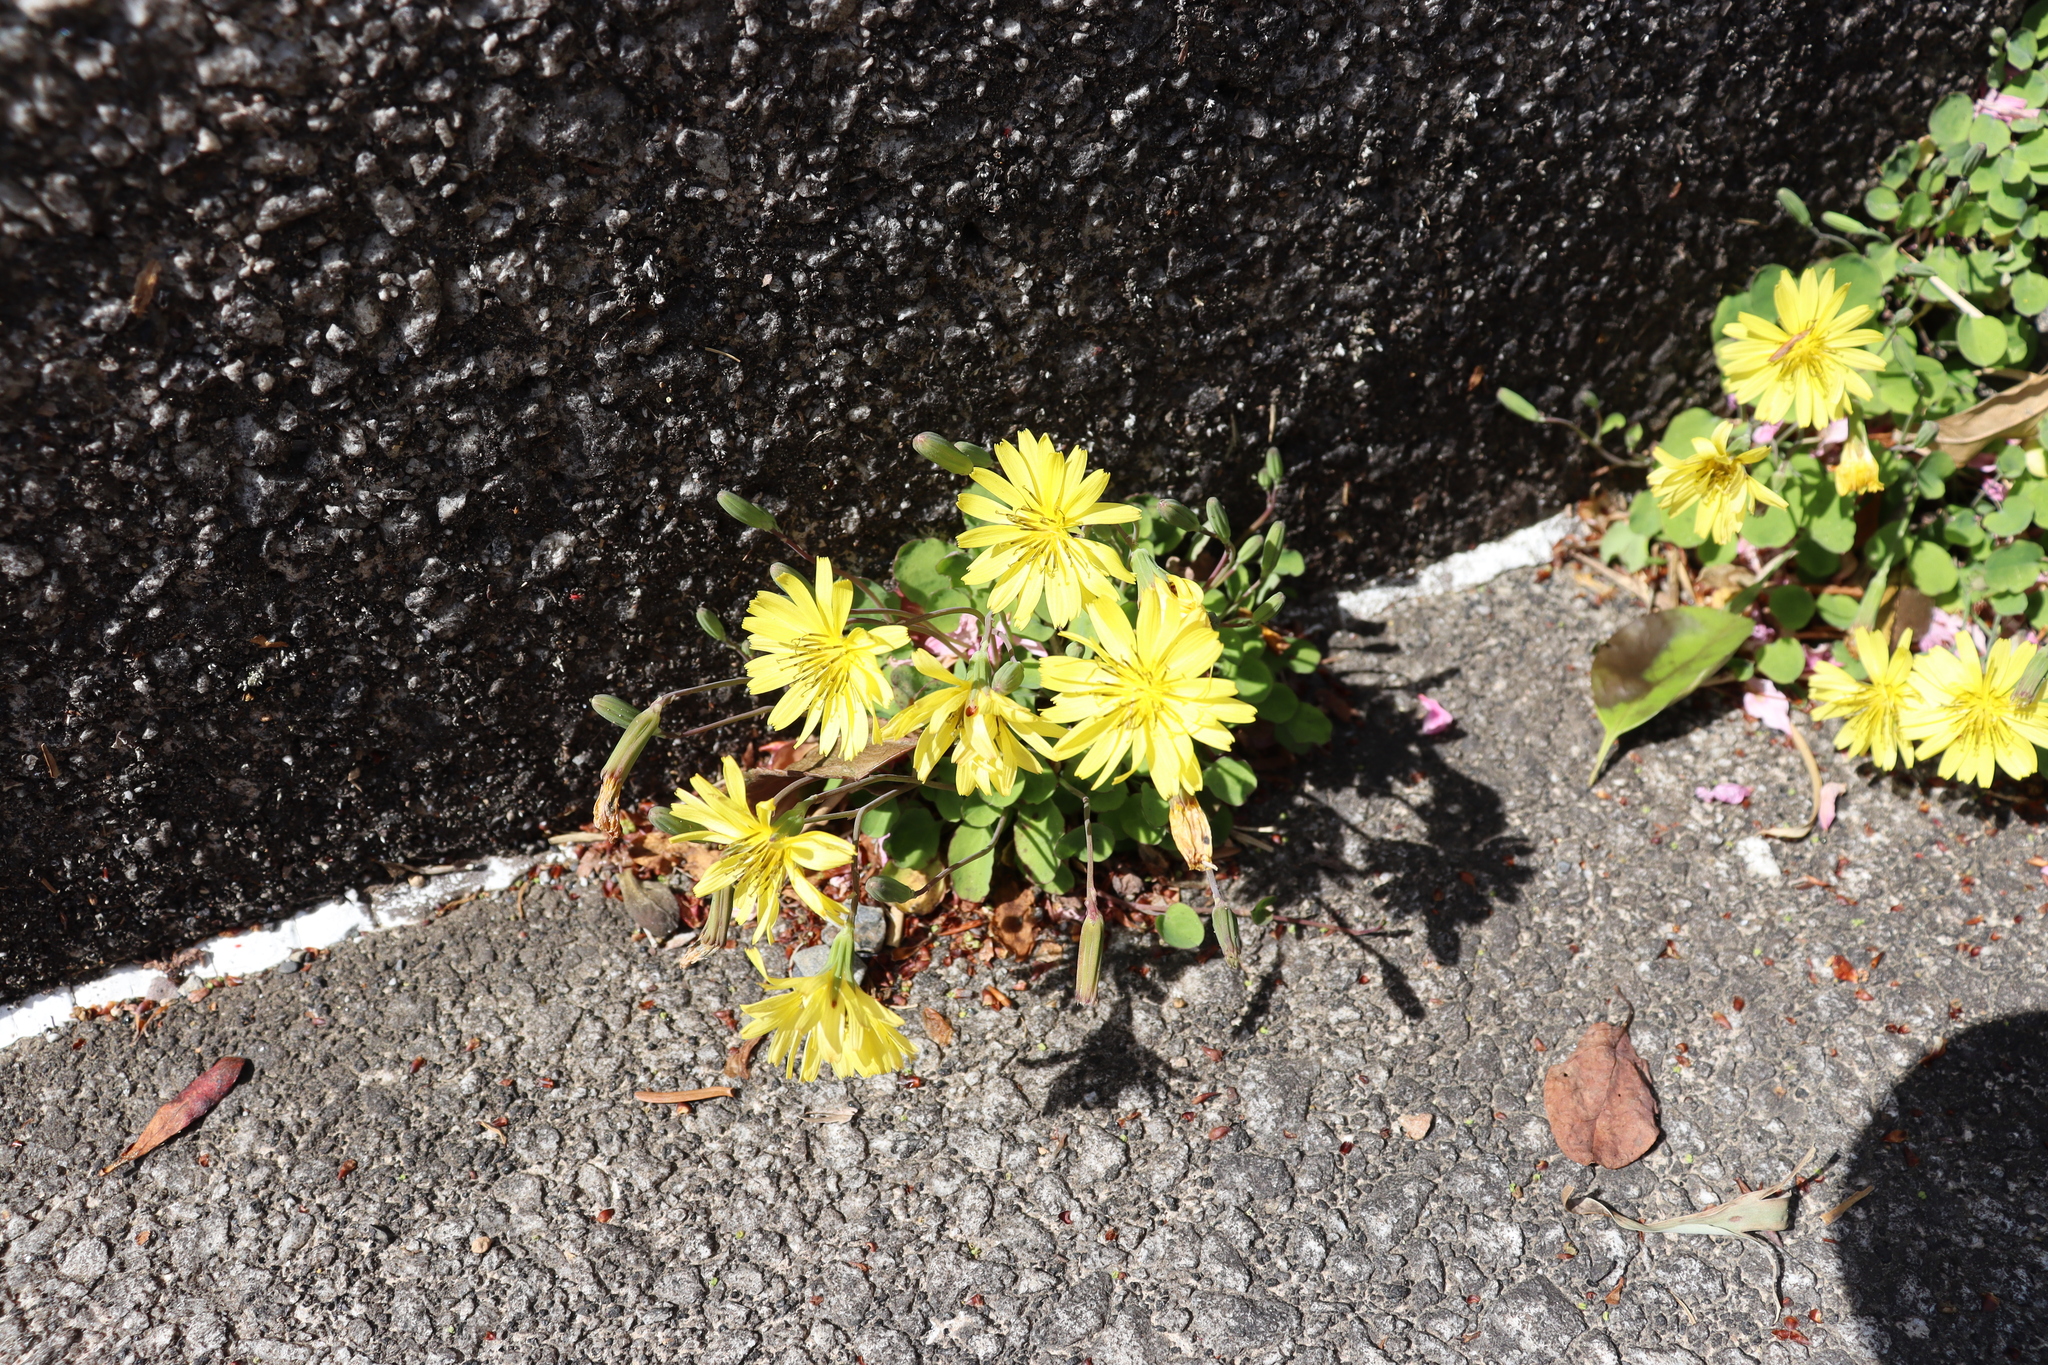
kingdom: Plantae
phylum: Tracheophyta
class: Magnoliopsida
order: Asterales
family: Asteraceae
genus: Ixeris
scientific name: Ixeris stolonifera
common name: Creeping lettuce
